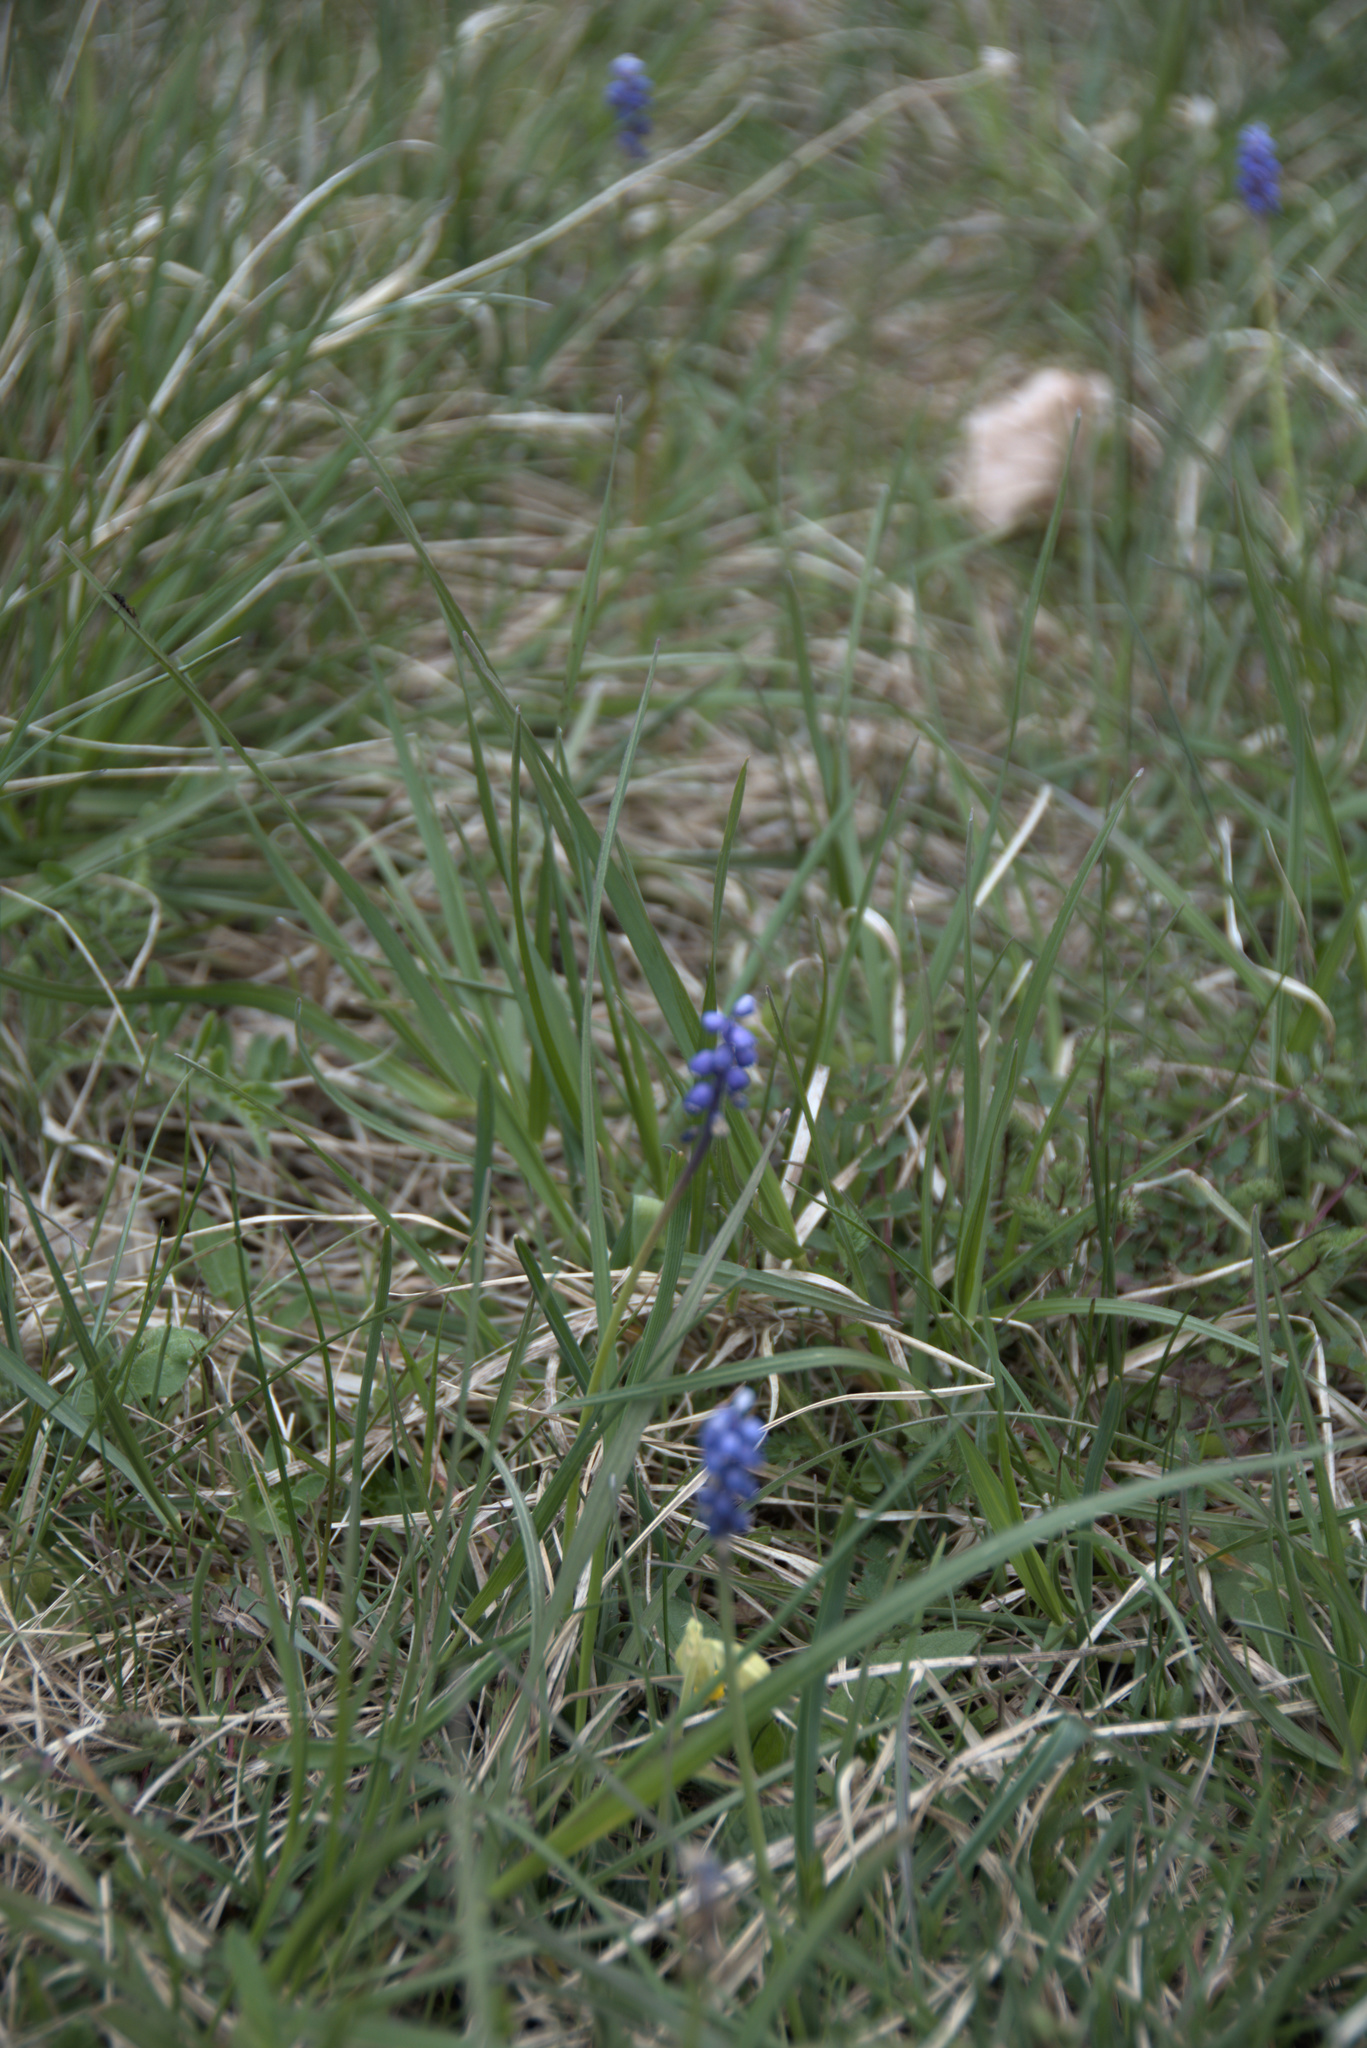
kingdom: Plantae
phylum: Tracheophyta
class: Liliopsida
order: Asparagales
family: Asparagaceae
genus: Muscari
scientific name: Muscari botryoides
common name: Compact grape-hyacinth
